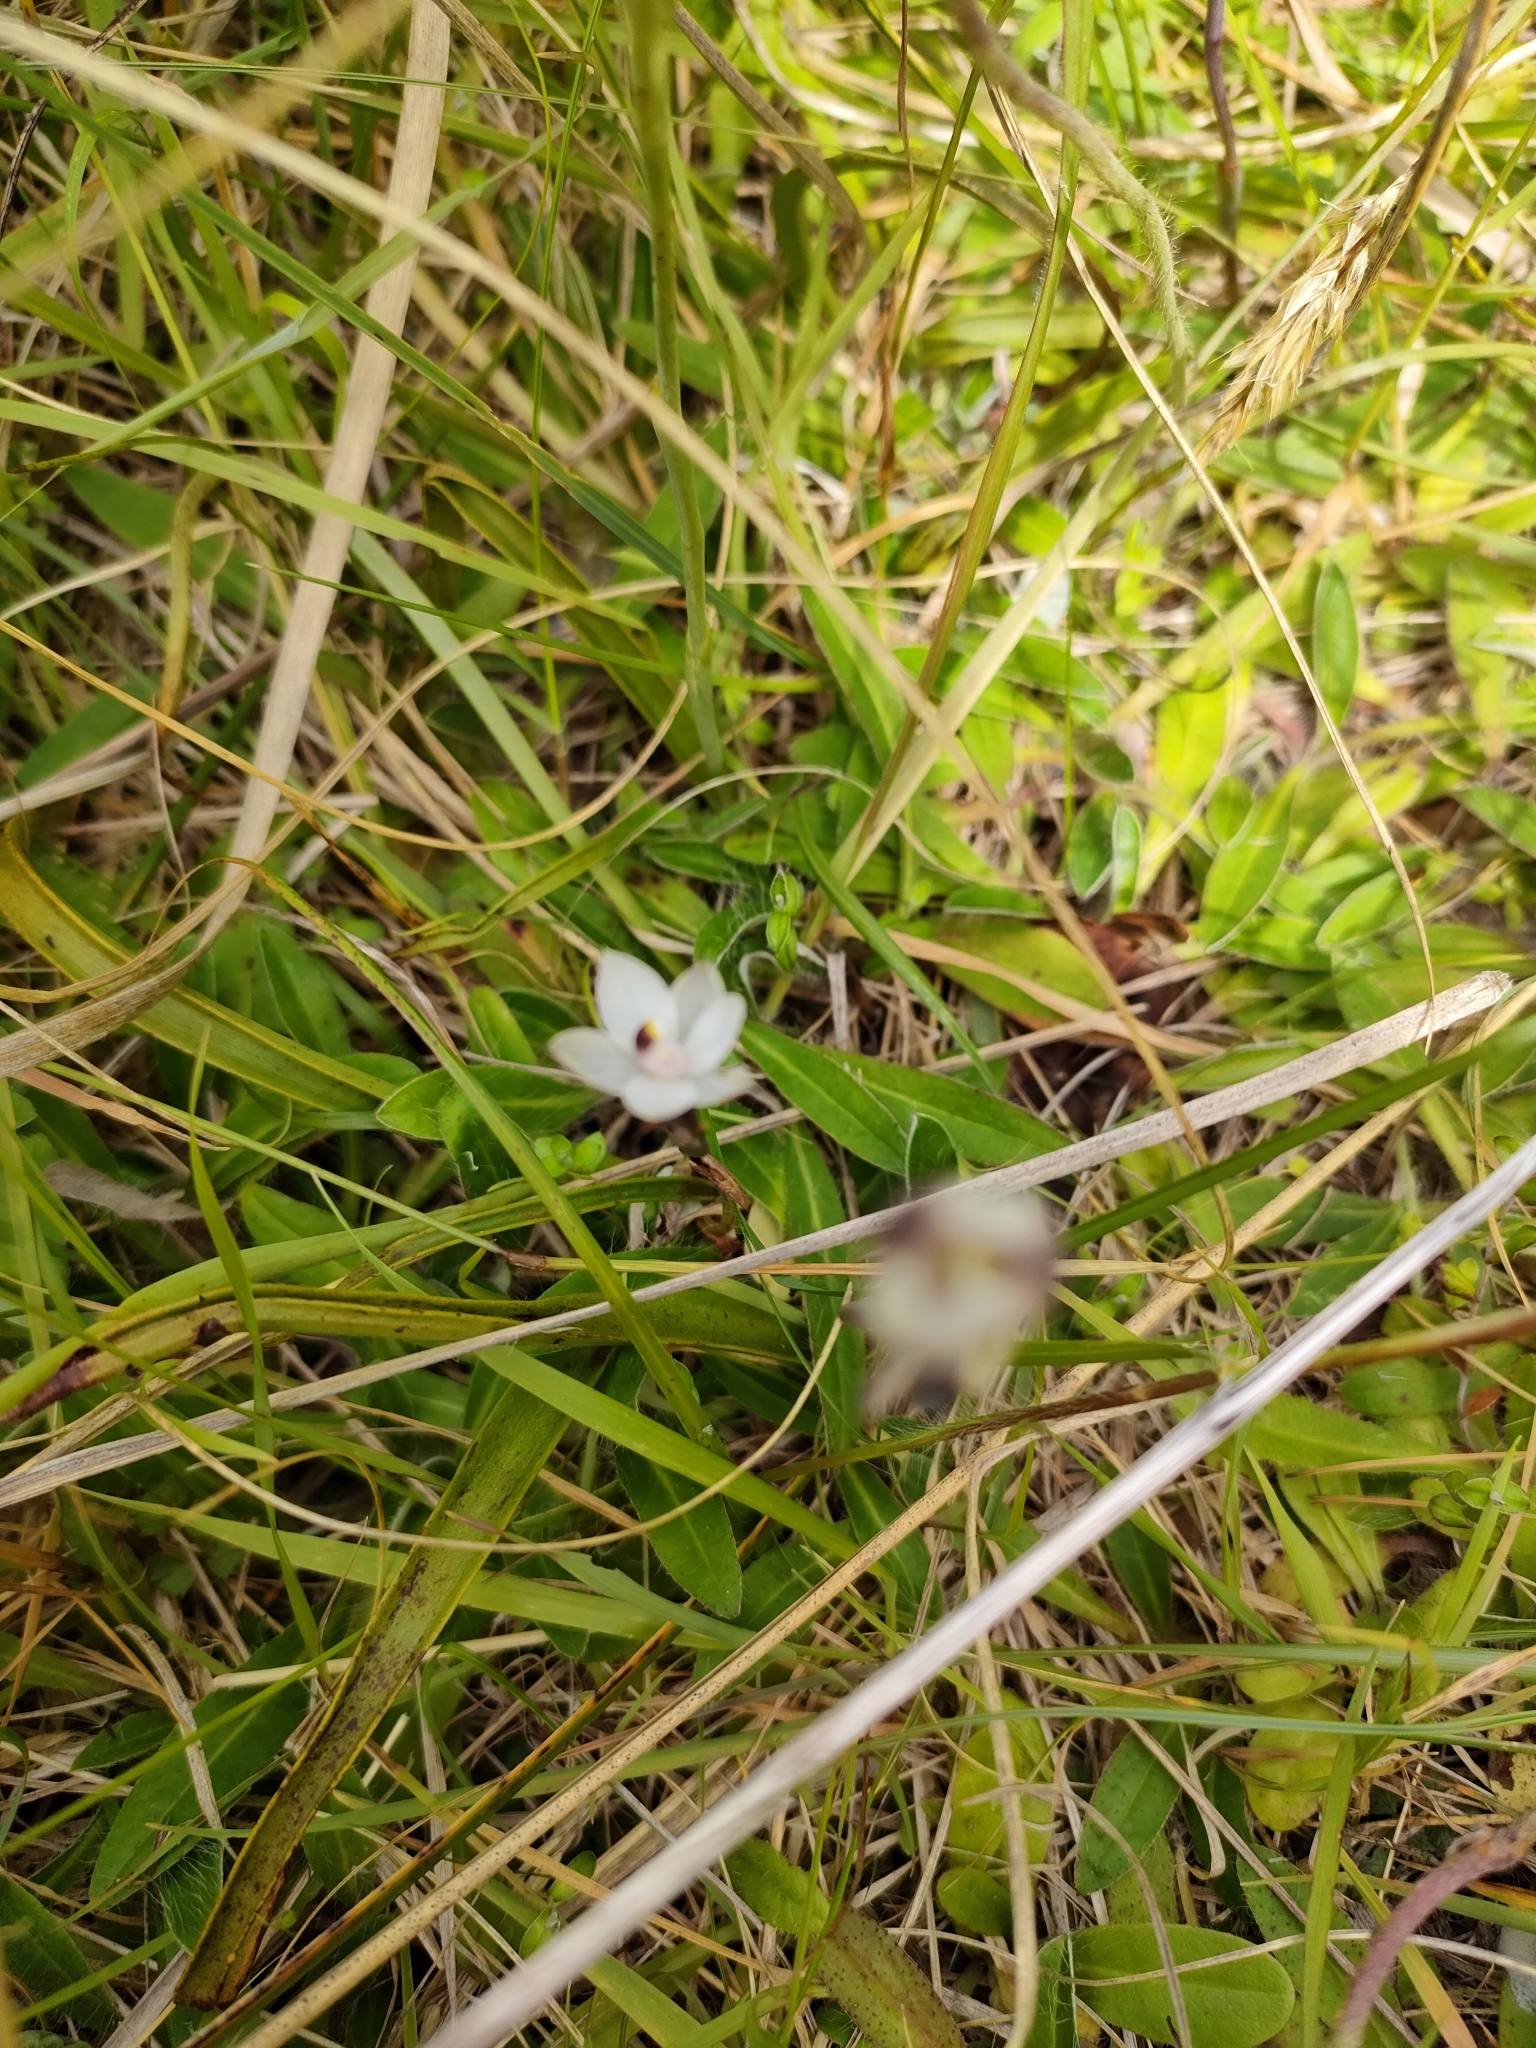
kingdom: Plantae
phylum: Tracheophyta
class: Liliopsida
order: Asparagales
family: Orchidaceae
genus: Thelymitra
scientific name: Thelymitra longifolia
